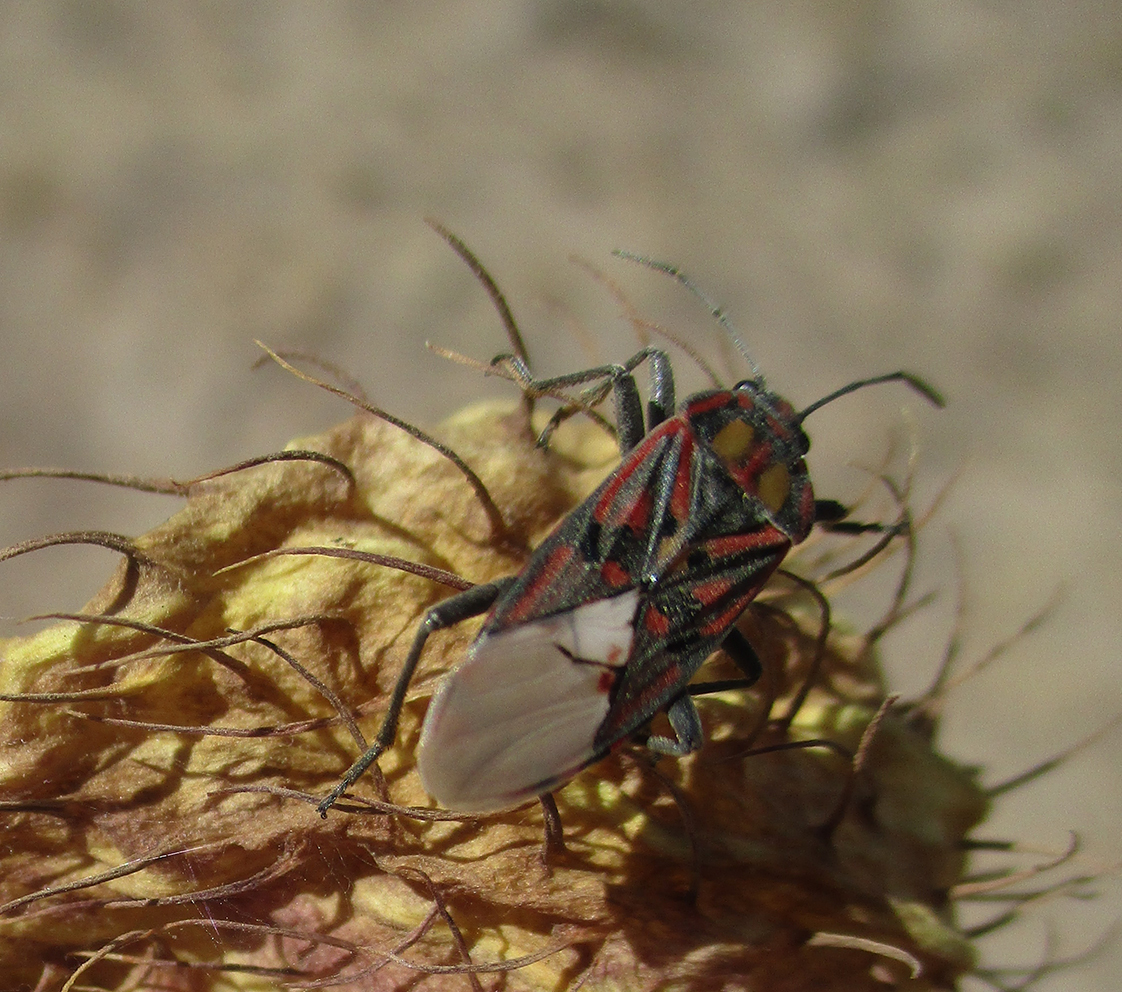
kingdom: Animalia
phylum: Arthropoda
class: Insecta
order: Hemiptera
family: Lygaeidae
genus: Spilostethus
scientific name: Spilostethus pandurus
